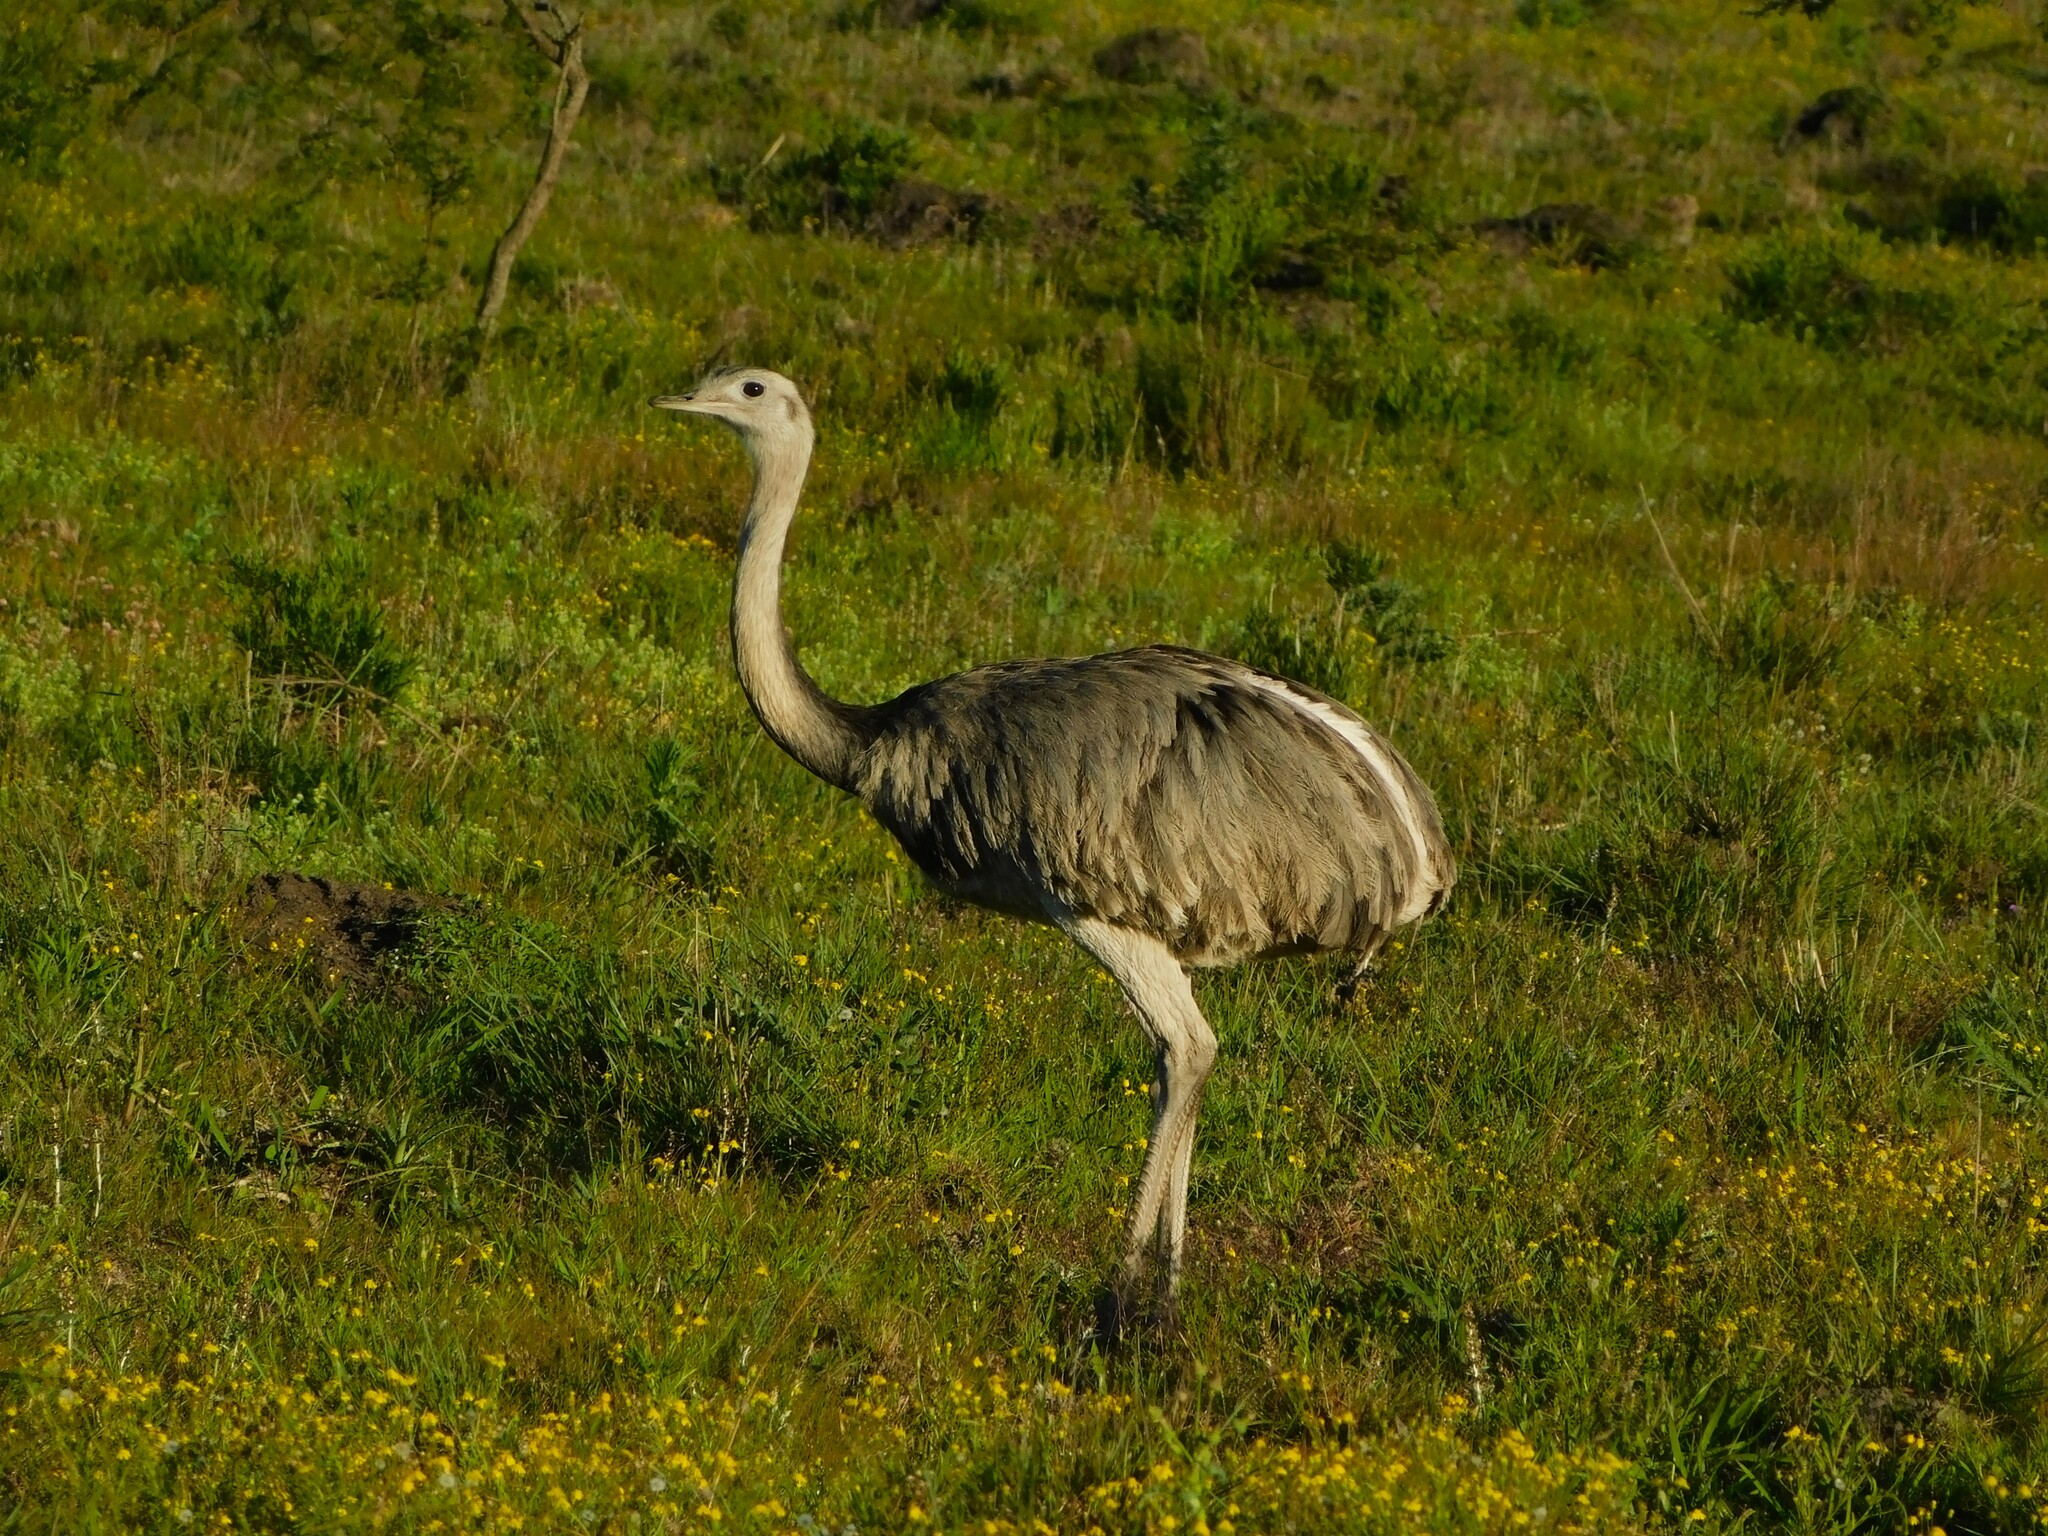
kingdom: Animalia
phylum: Chordata
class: Aves
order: Rheiformes
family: Rheidae
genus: Rhea
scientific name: Rhea americana
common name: Greater rhea
